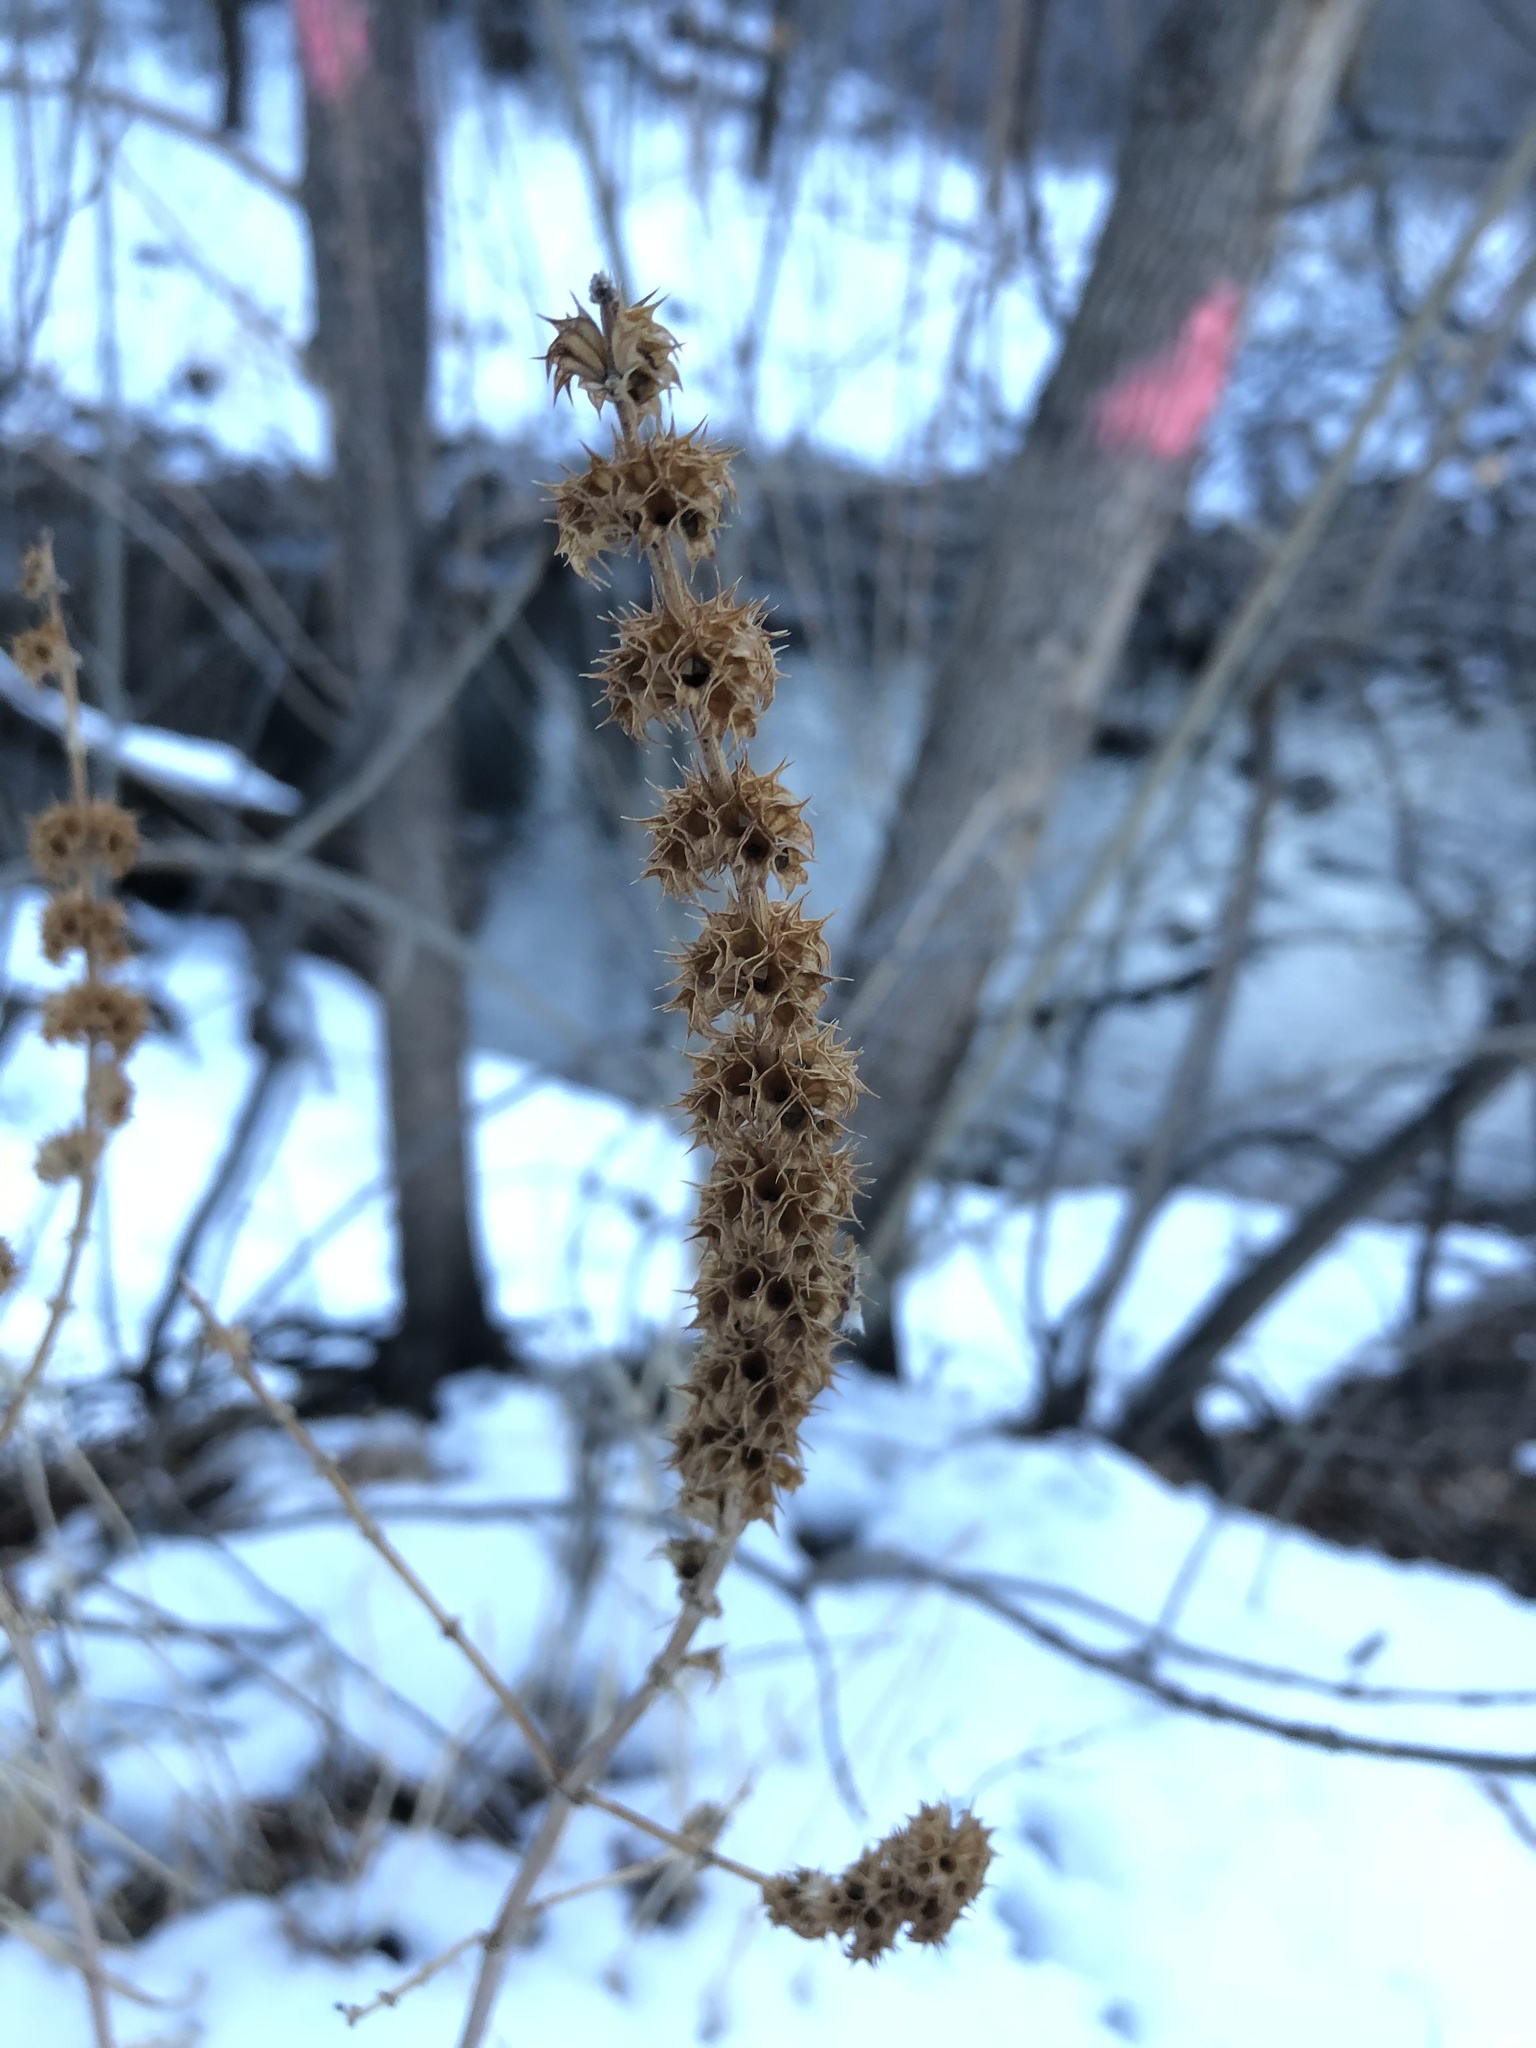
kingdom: Plantae
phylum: Tracheophyta
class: Magnoliopsida
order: Lamiales
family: Lamiaceae
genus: Leonurus
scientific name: Leonurus cardiaca
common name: Motherwort
